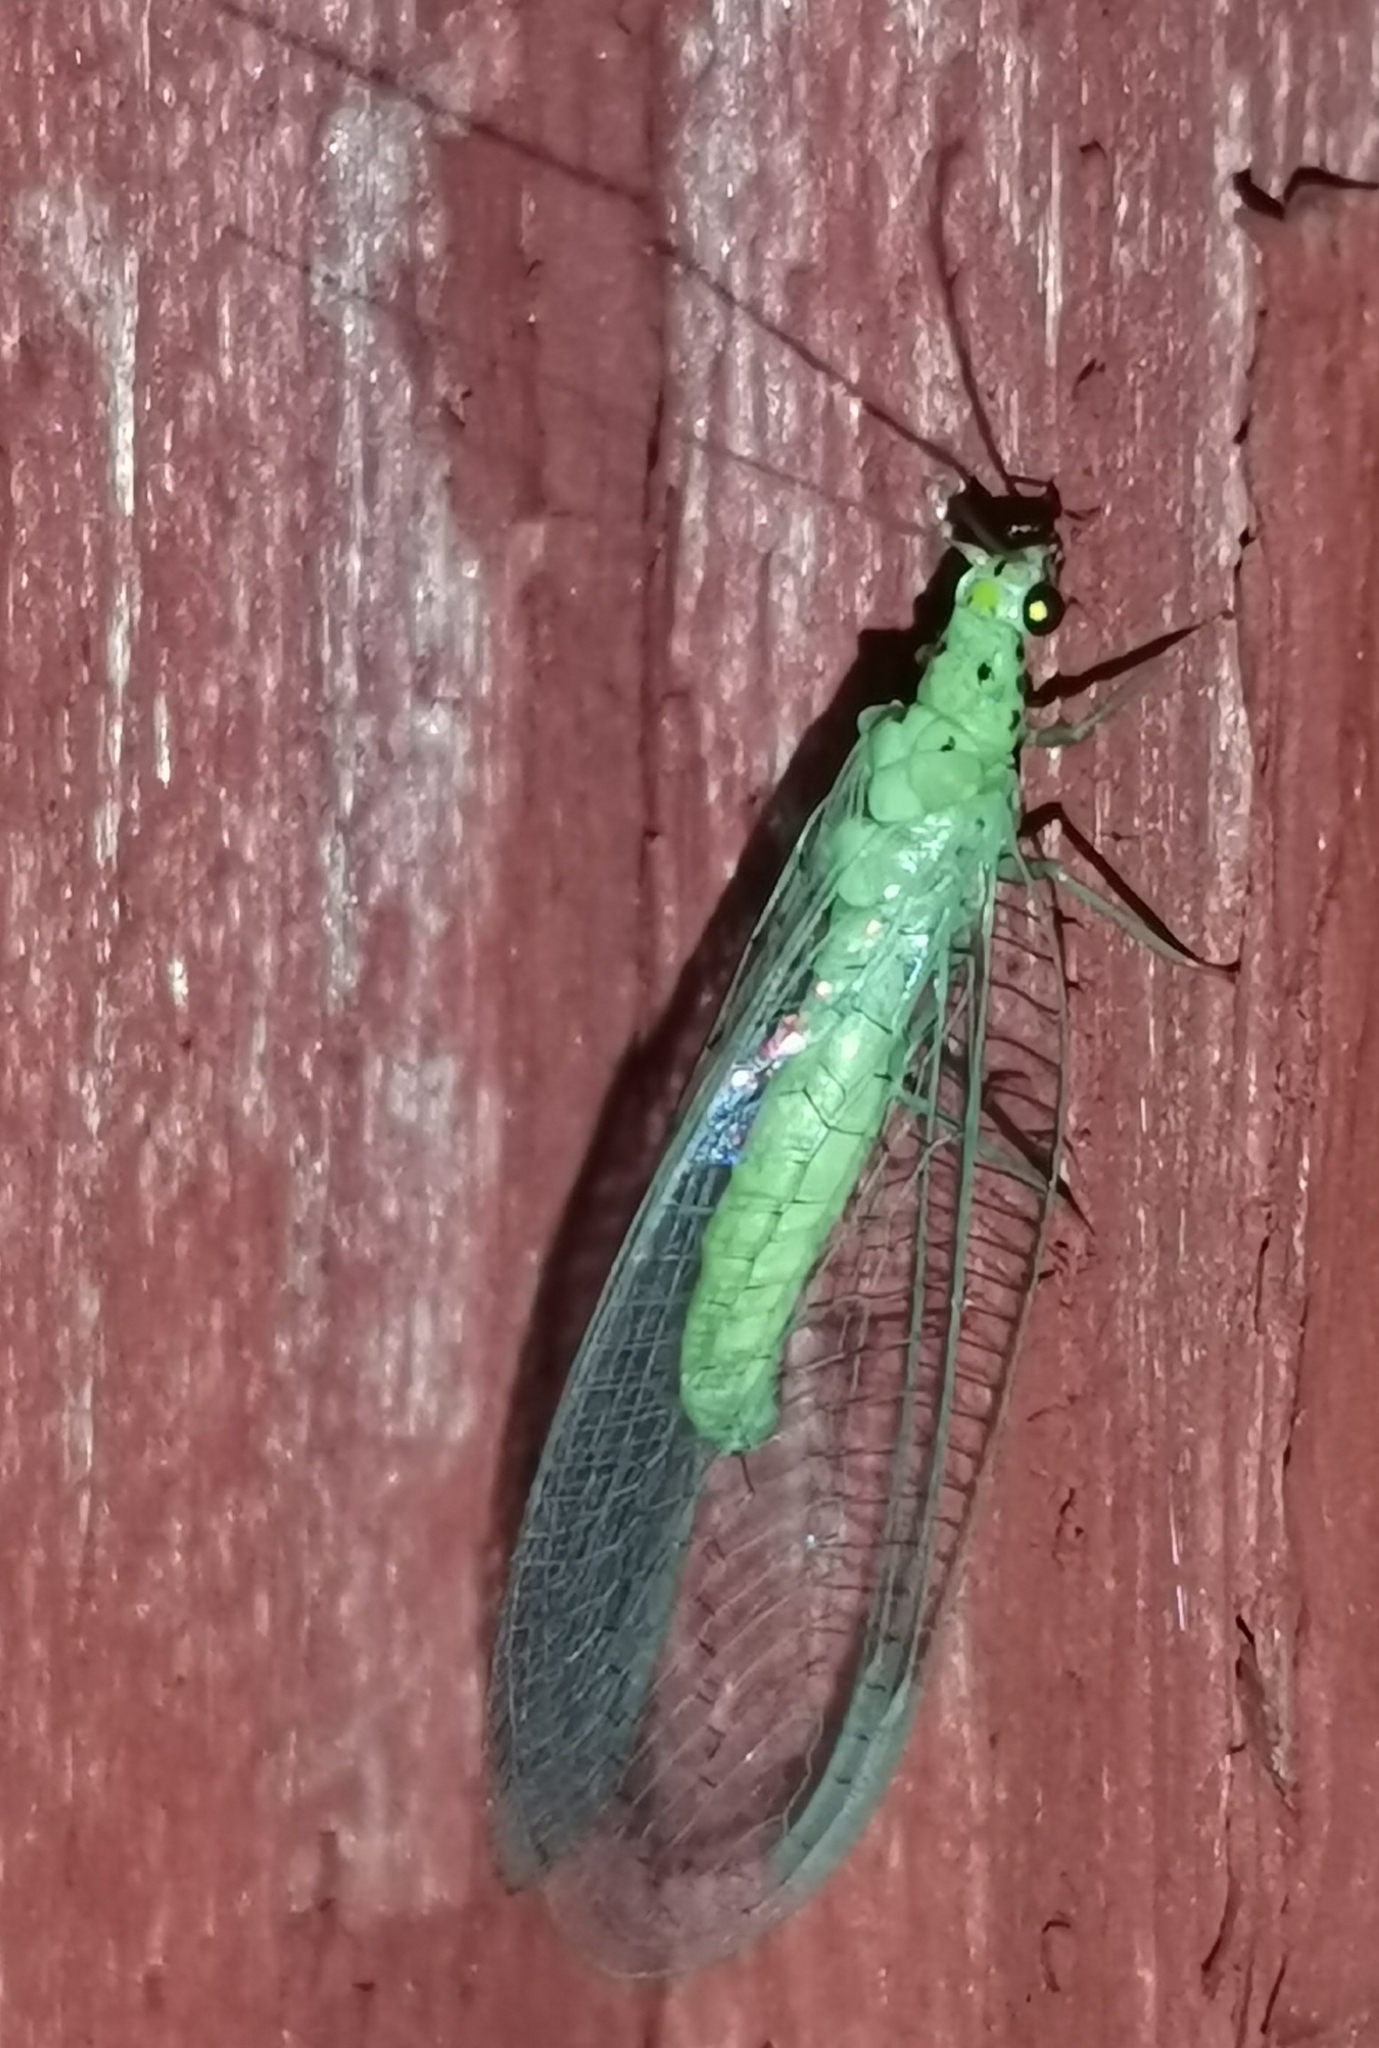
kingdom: Animalia
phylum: Arthropoda
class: Insecta
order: Neuroptera
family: Chrysopidae
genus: Pseudomallada
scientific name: Pseudomallada ventralis
